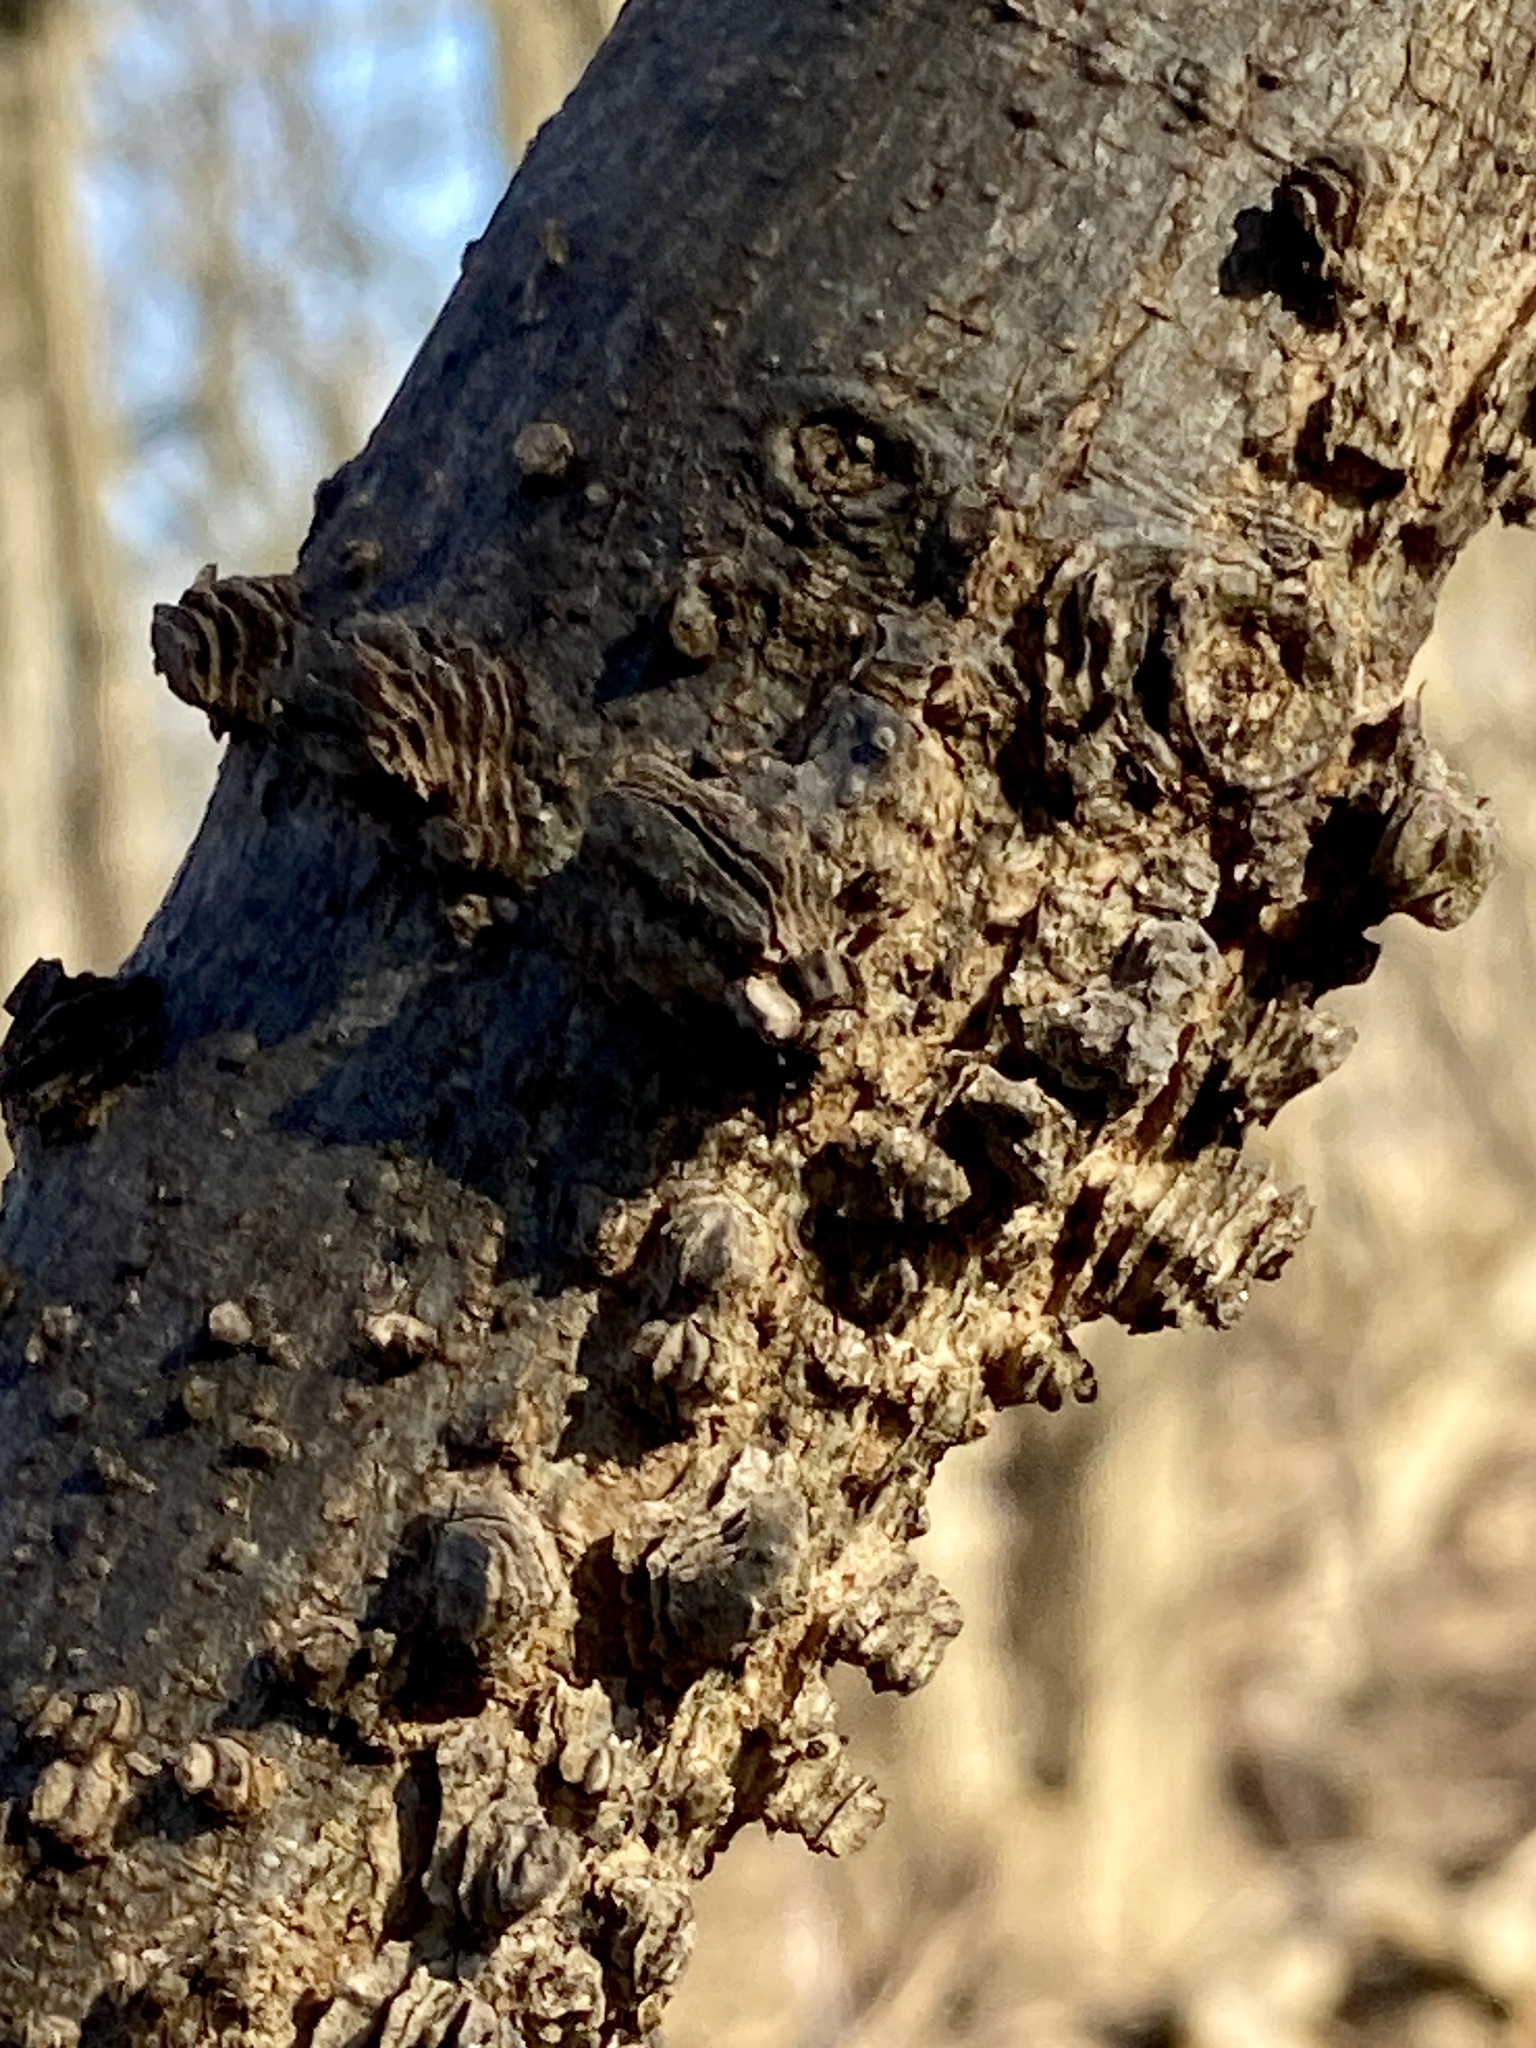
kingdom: Plantae
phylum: Tracheophyta
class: Magnoliopsida
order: Rosales
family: Cannabaceae
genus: Celtis
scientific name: Celtis occidentalis
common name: Common hackberry
